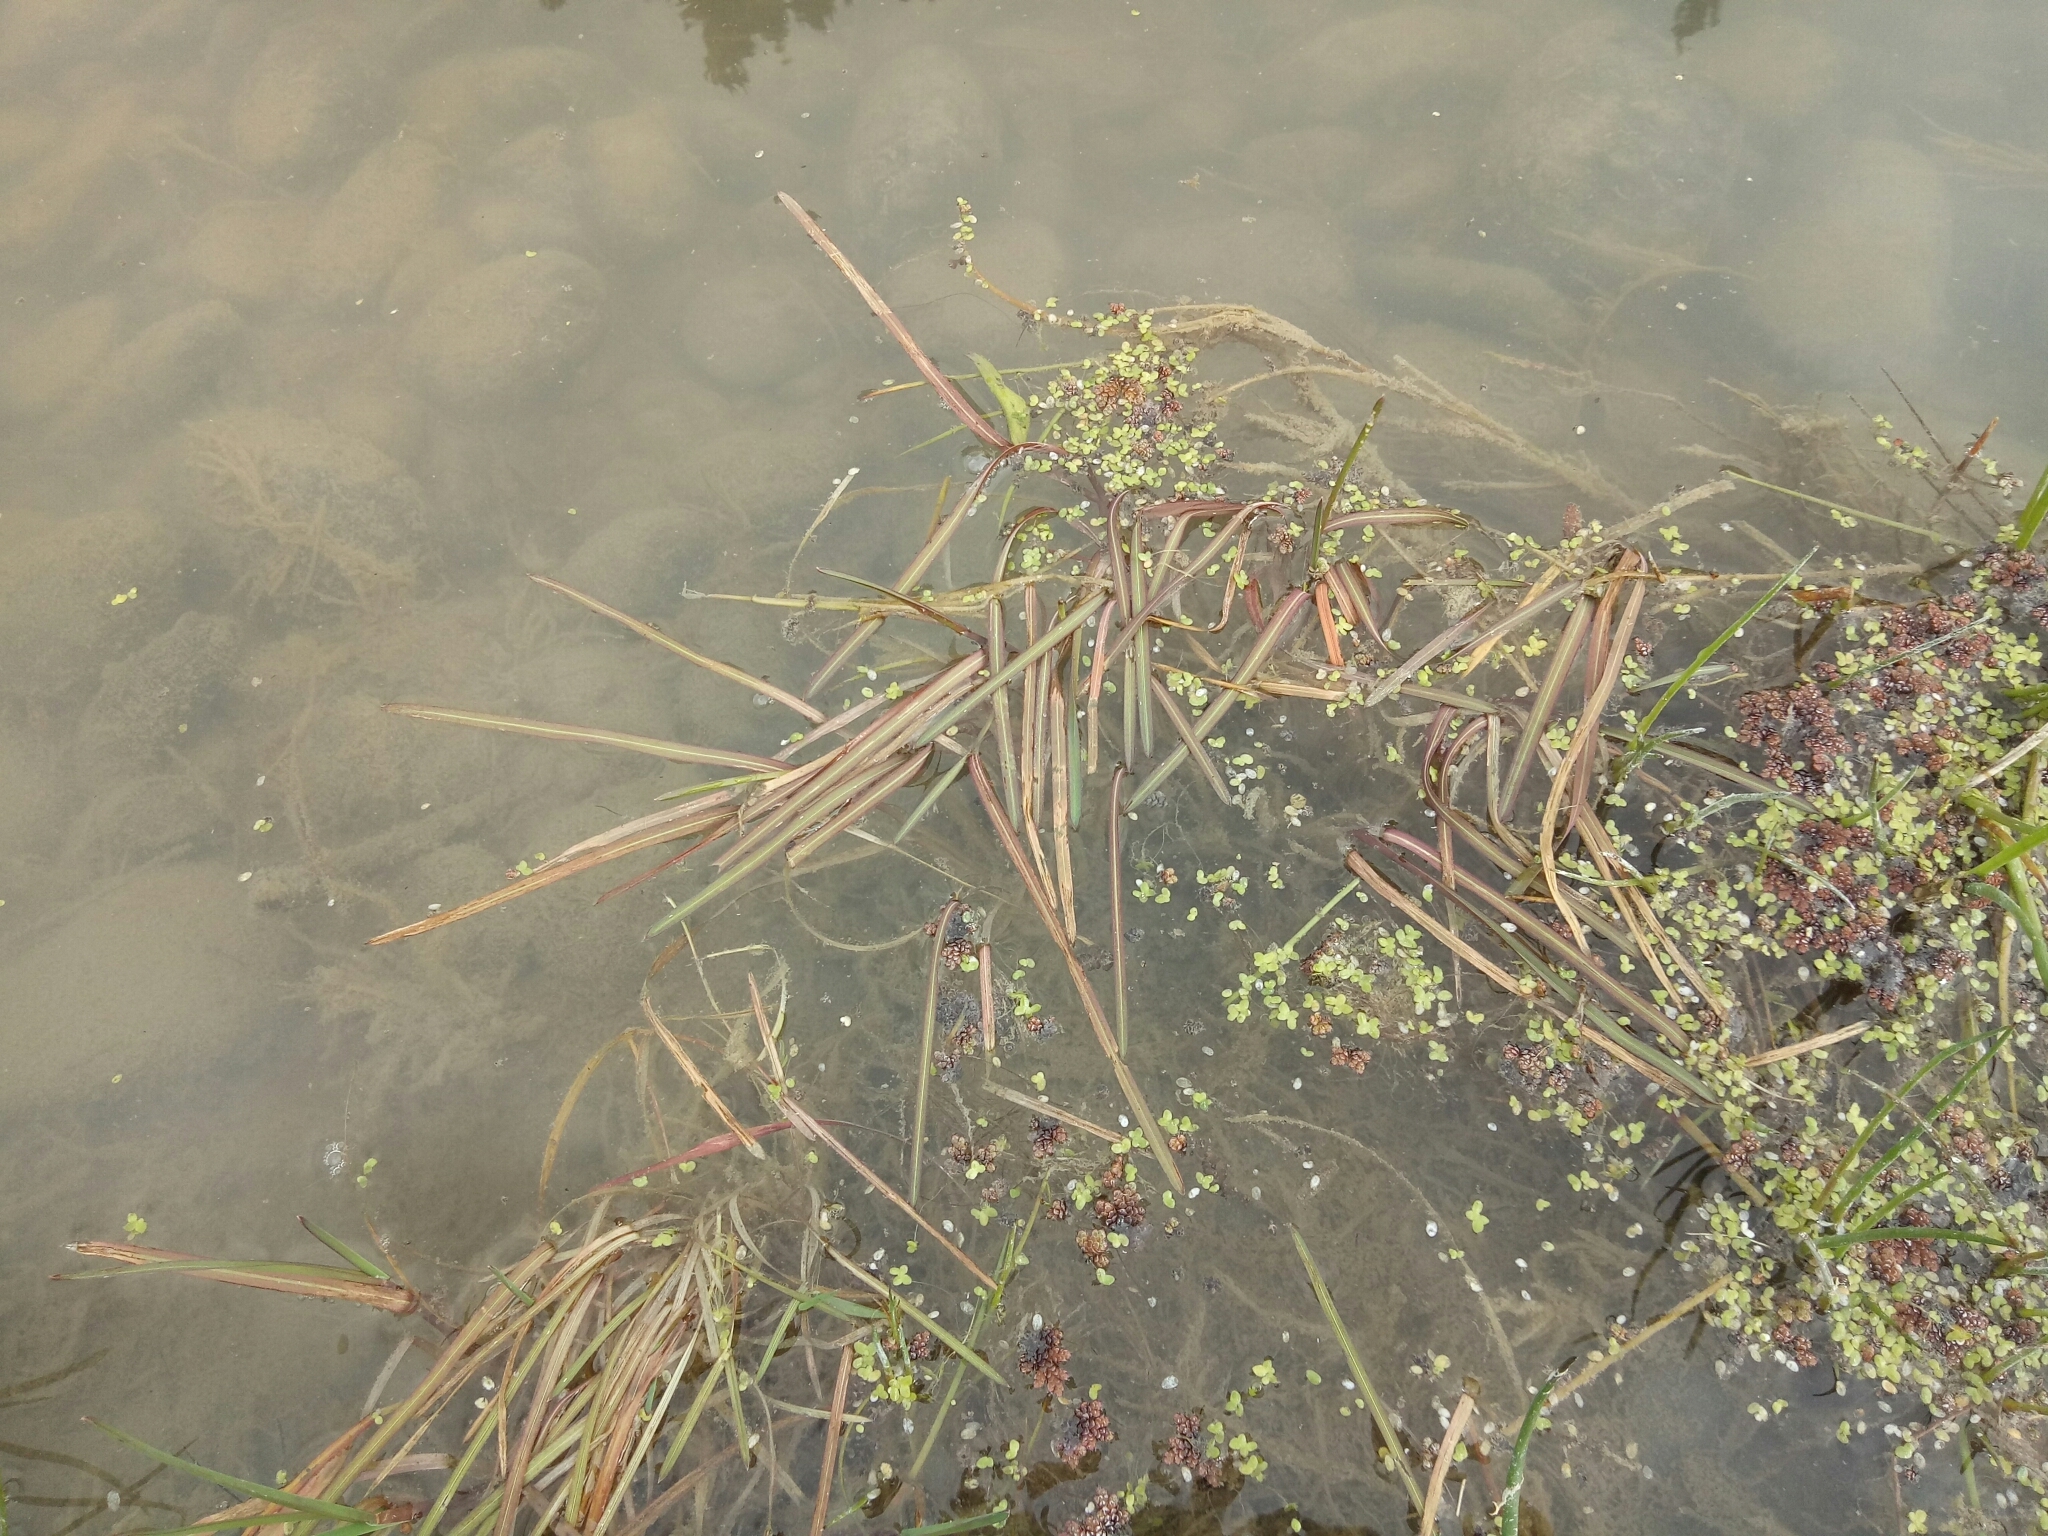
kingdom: Plantae
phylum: Tracheophyta
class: Liliopsida
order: Poales
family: Poaceae
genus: Glyceria
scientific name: Glyceria fluitans
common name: Floating sweet-grass
